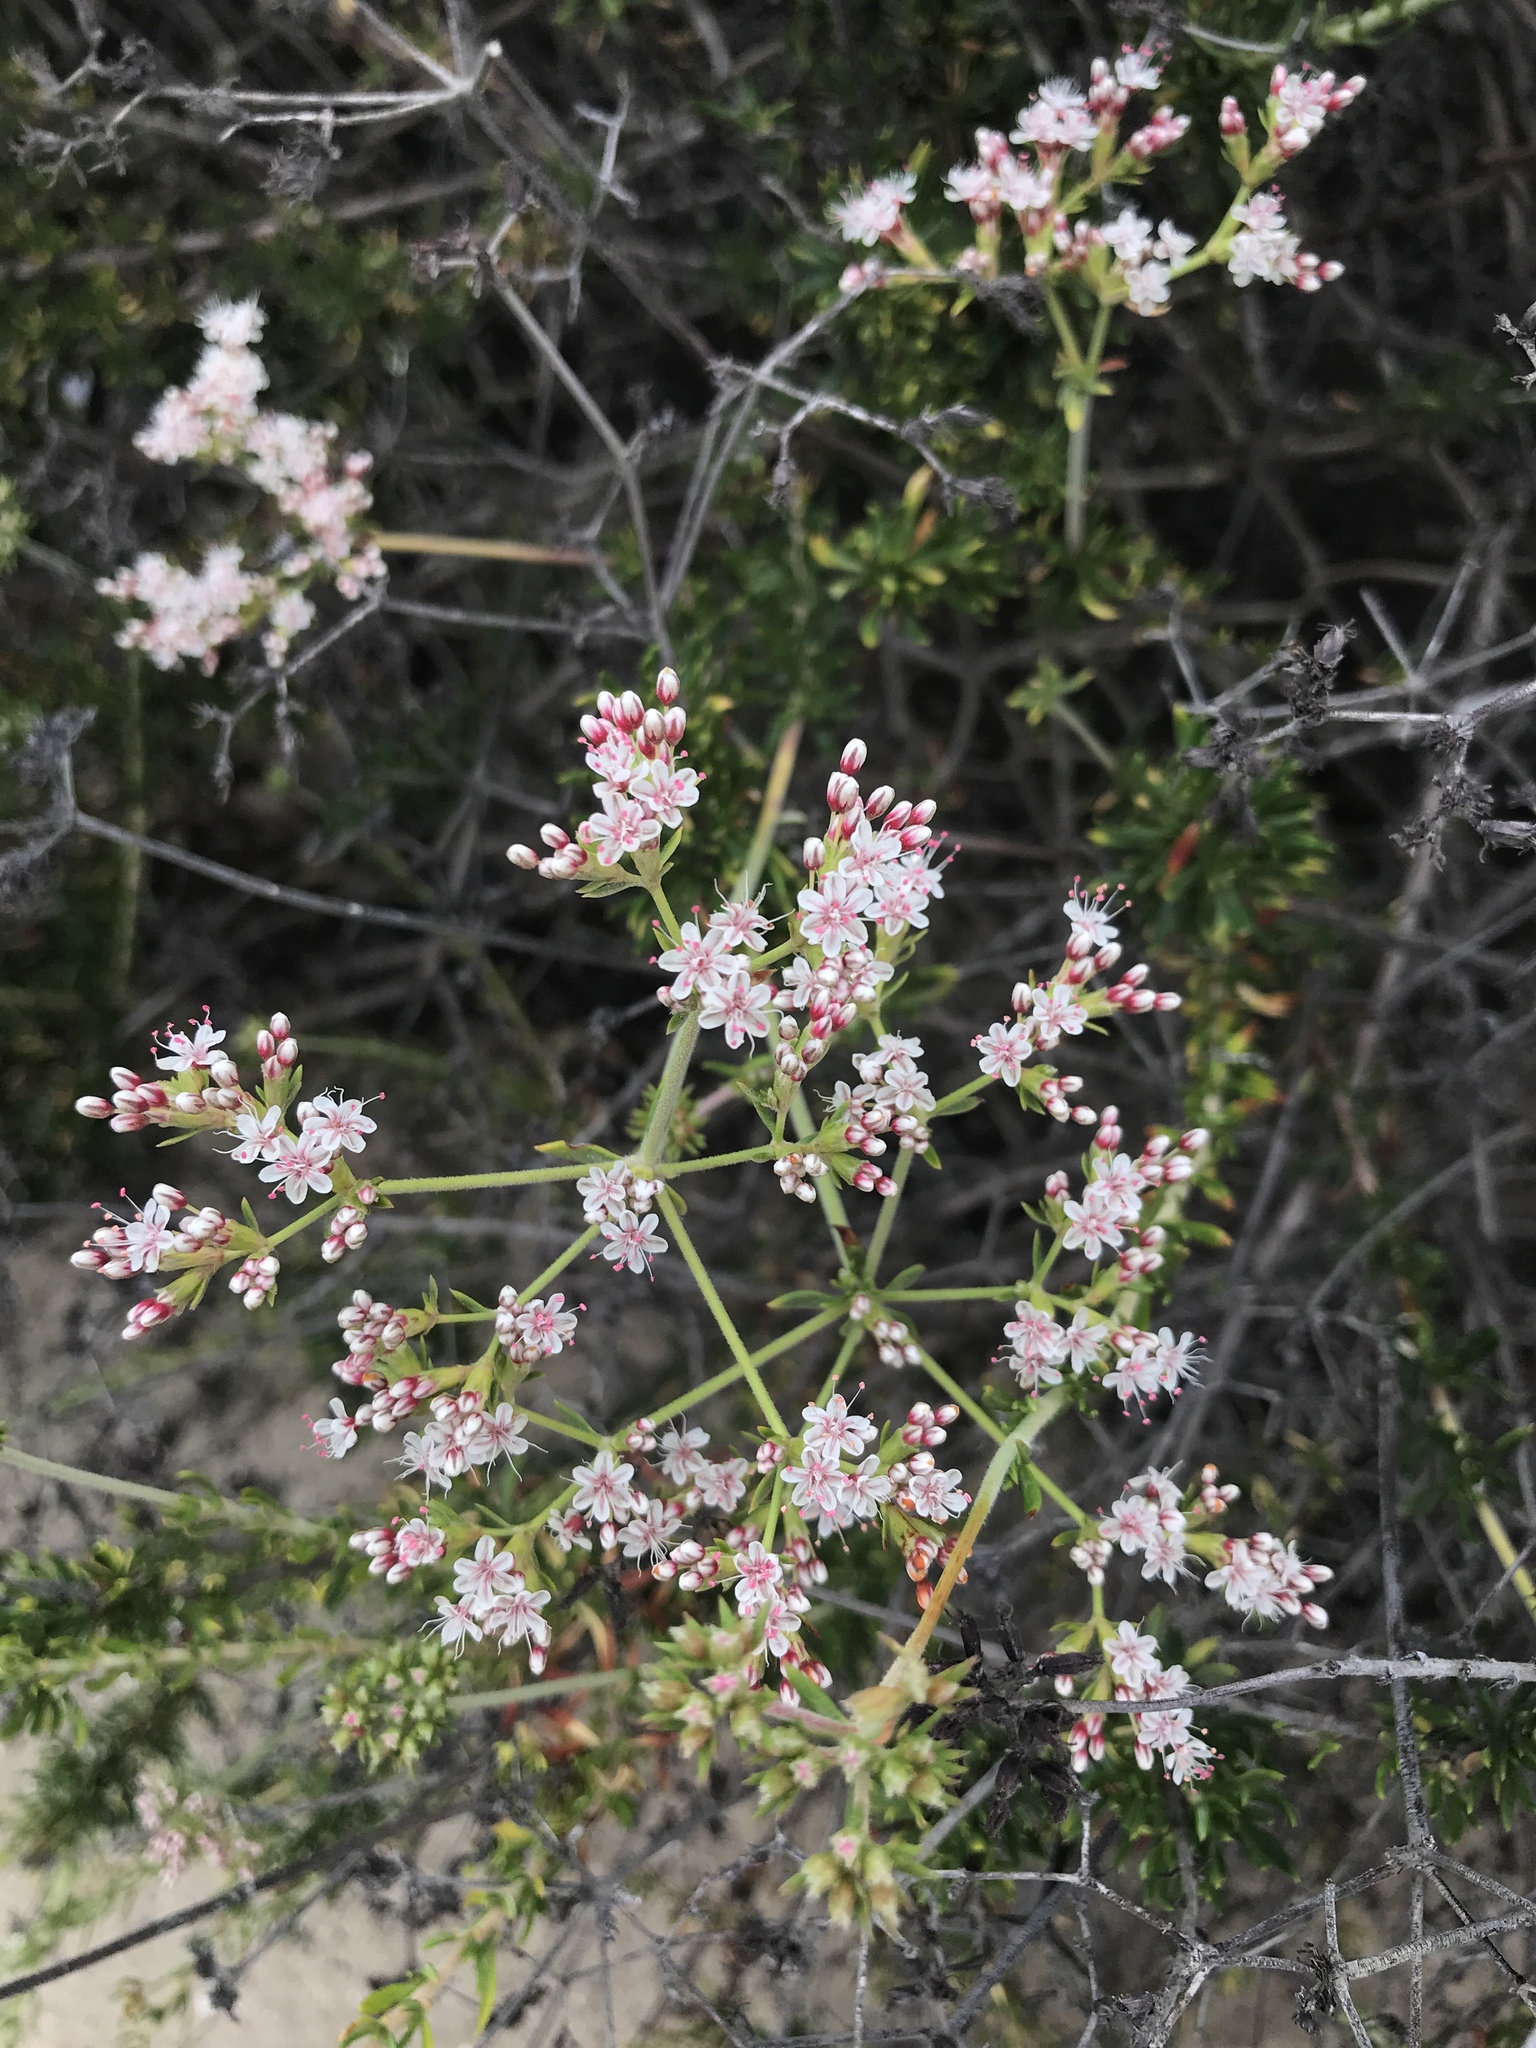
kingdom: Plantae
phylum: Tracheophyta
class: Magnoliopsida
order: Caryophyllales
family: Polygonaceae
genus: Eriogonum
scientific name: Eriogonum fasciculatum
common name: California wild buckwheat
